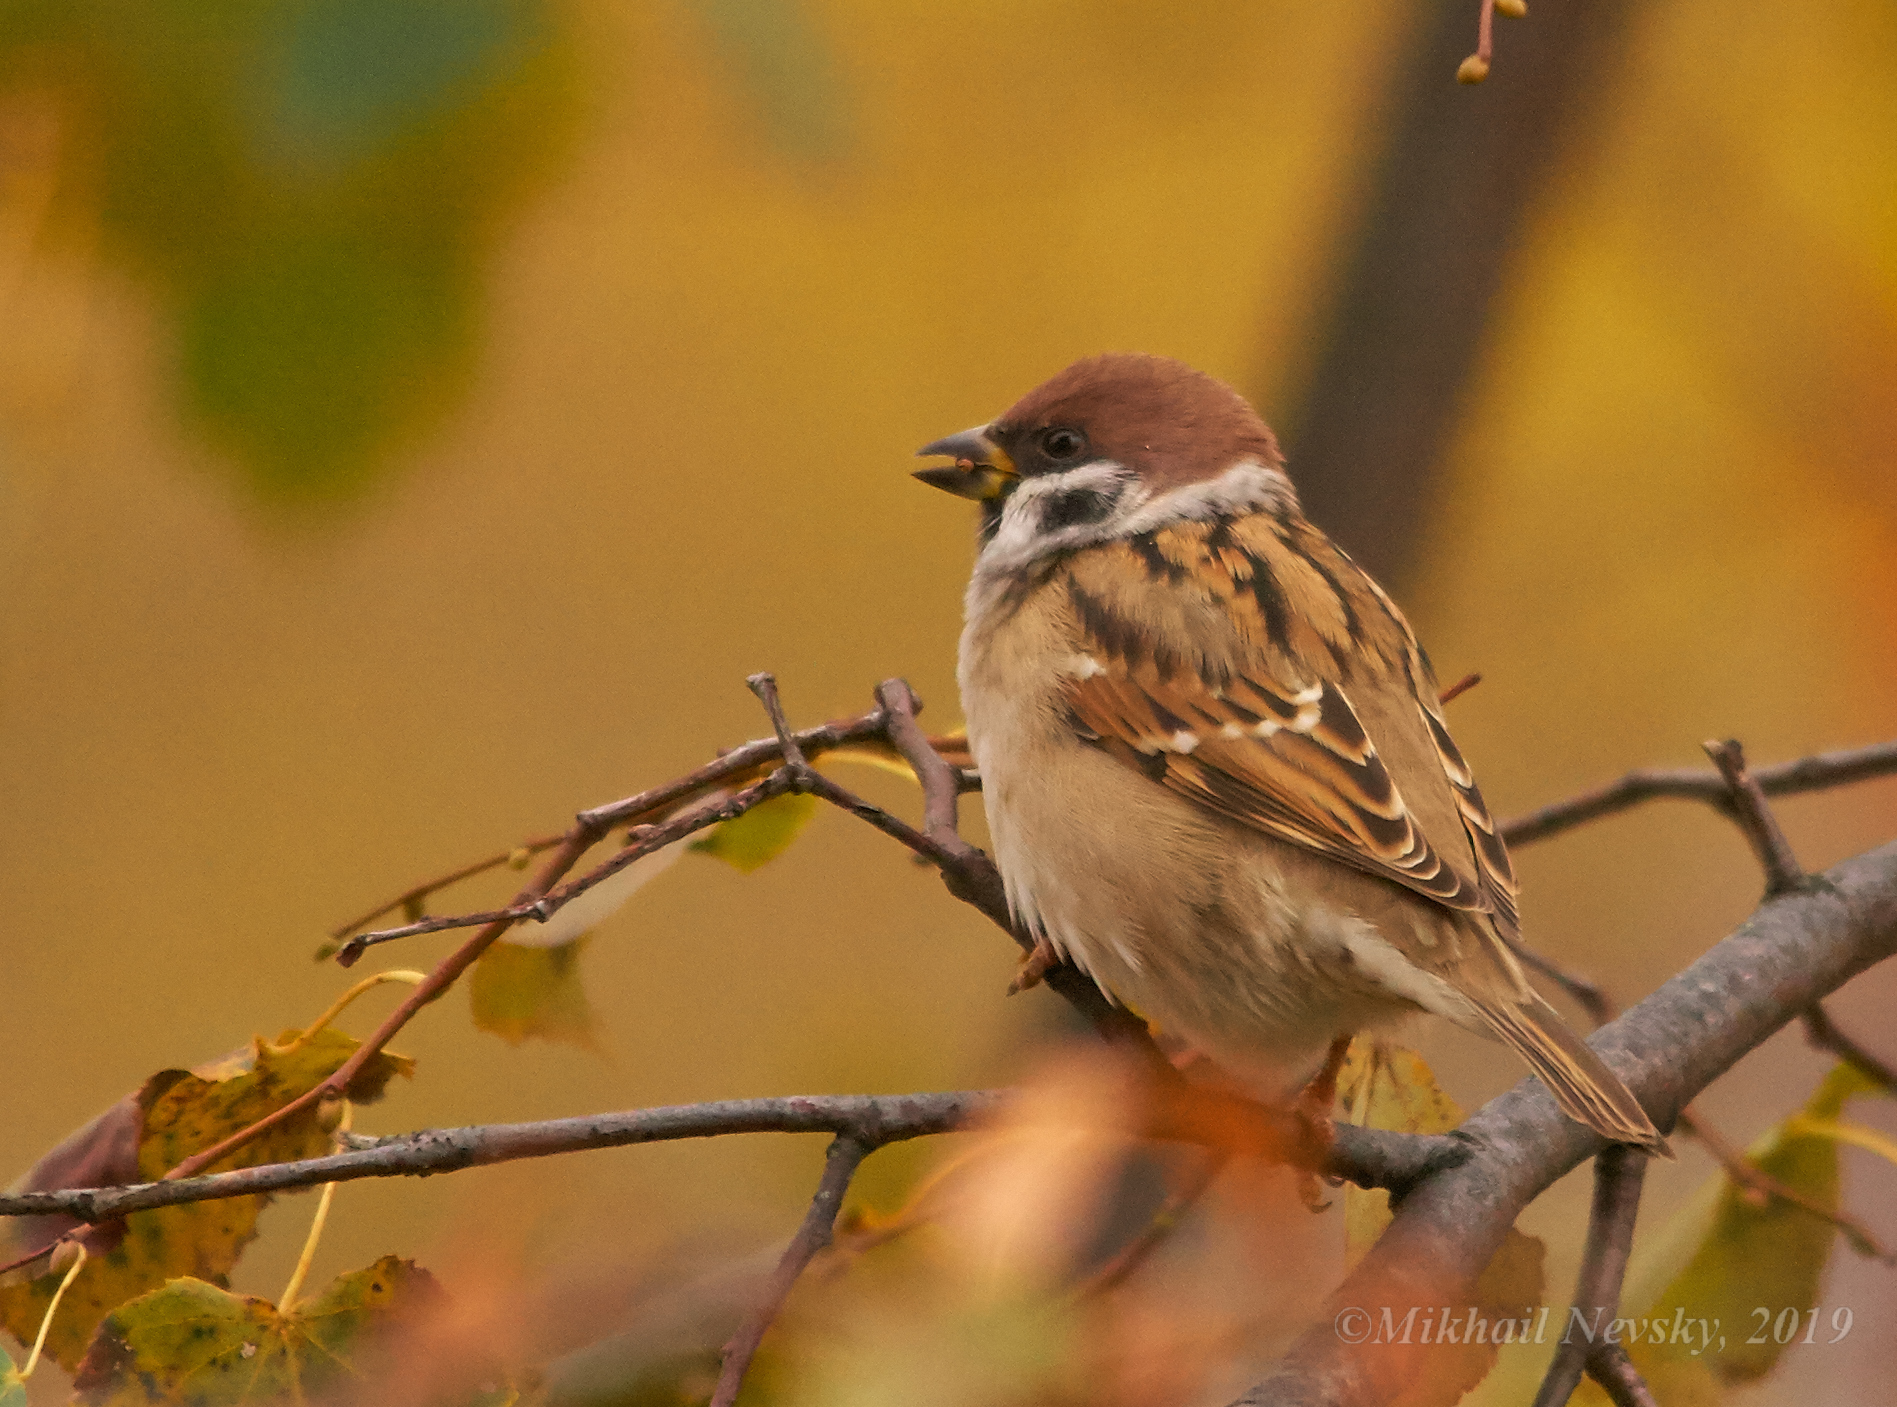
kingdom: Animalia
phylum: Chordata
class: Aves
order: Passeriformes
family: Passeridae
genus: Passer
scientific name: Passer montanus
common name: Eurasian tree sparrow
